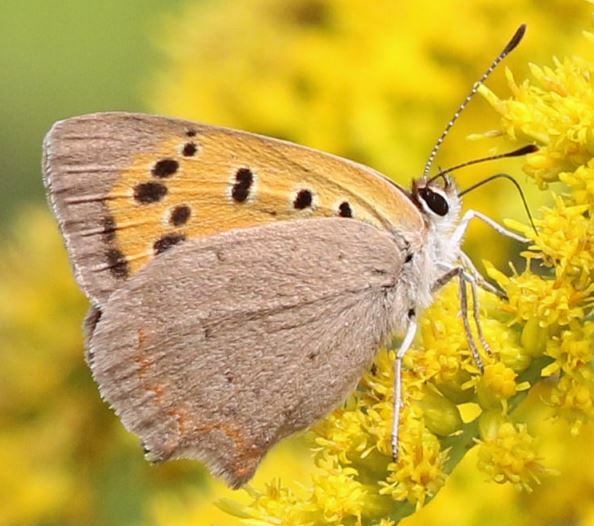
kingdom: Animalia
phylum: Arthropoda
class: Insecta
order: Lepidoptera
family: Lycaenidae
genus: Lycaena
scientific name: Lycaena phlaeas
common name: Small copper
